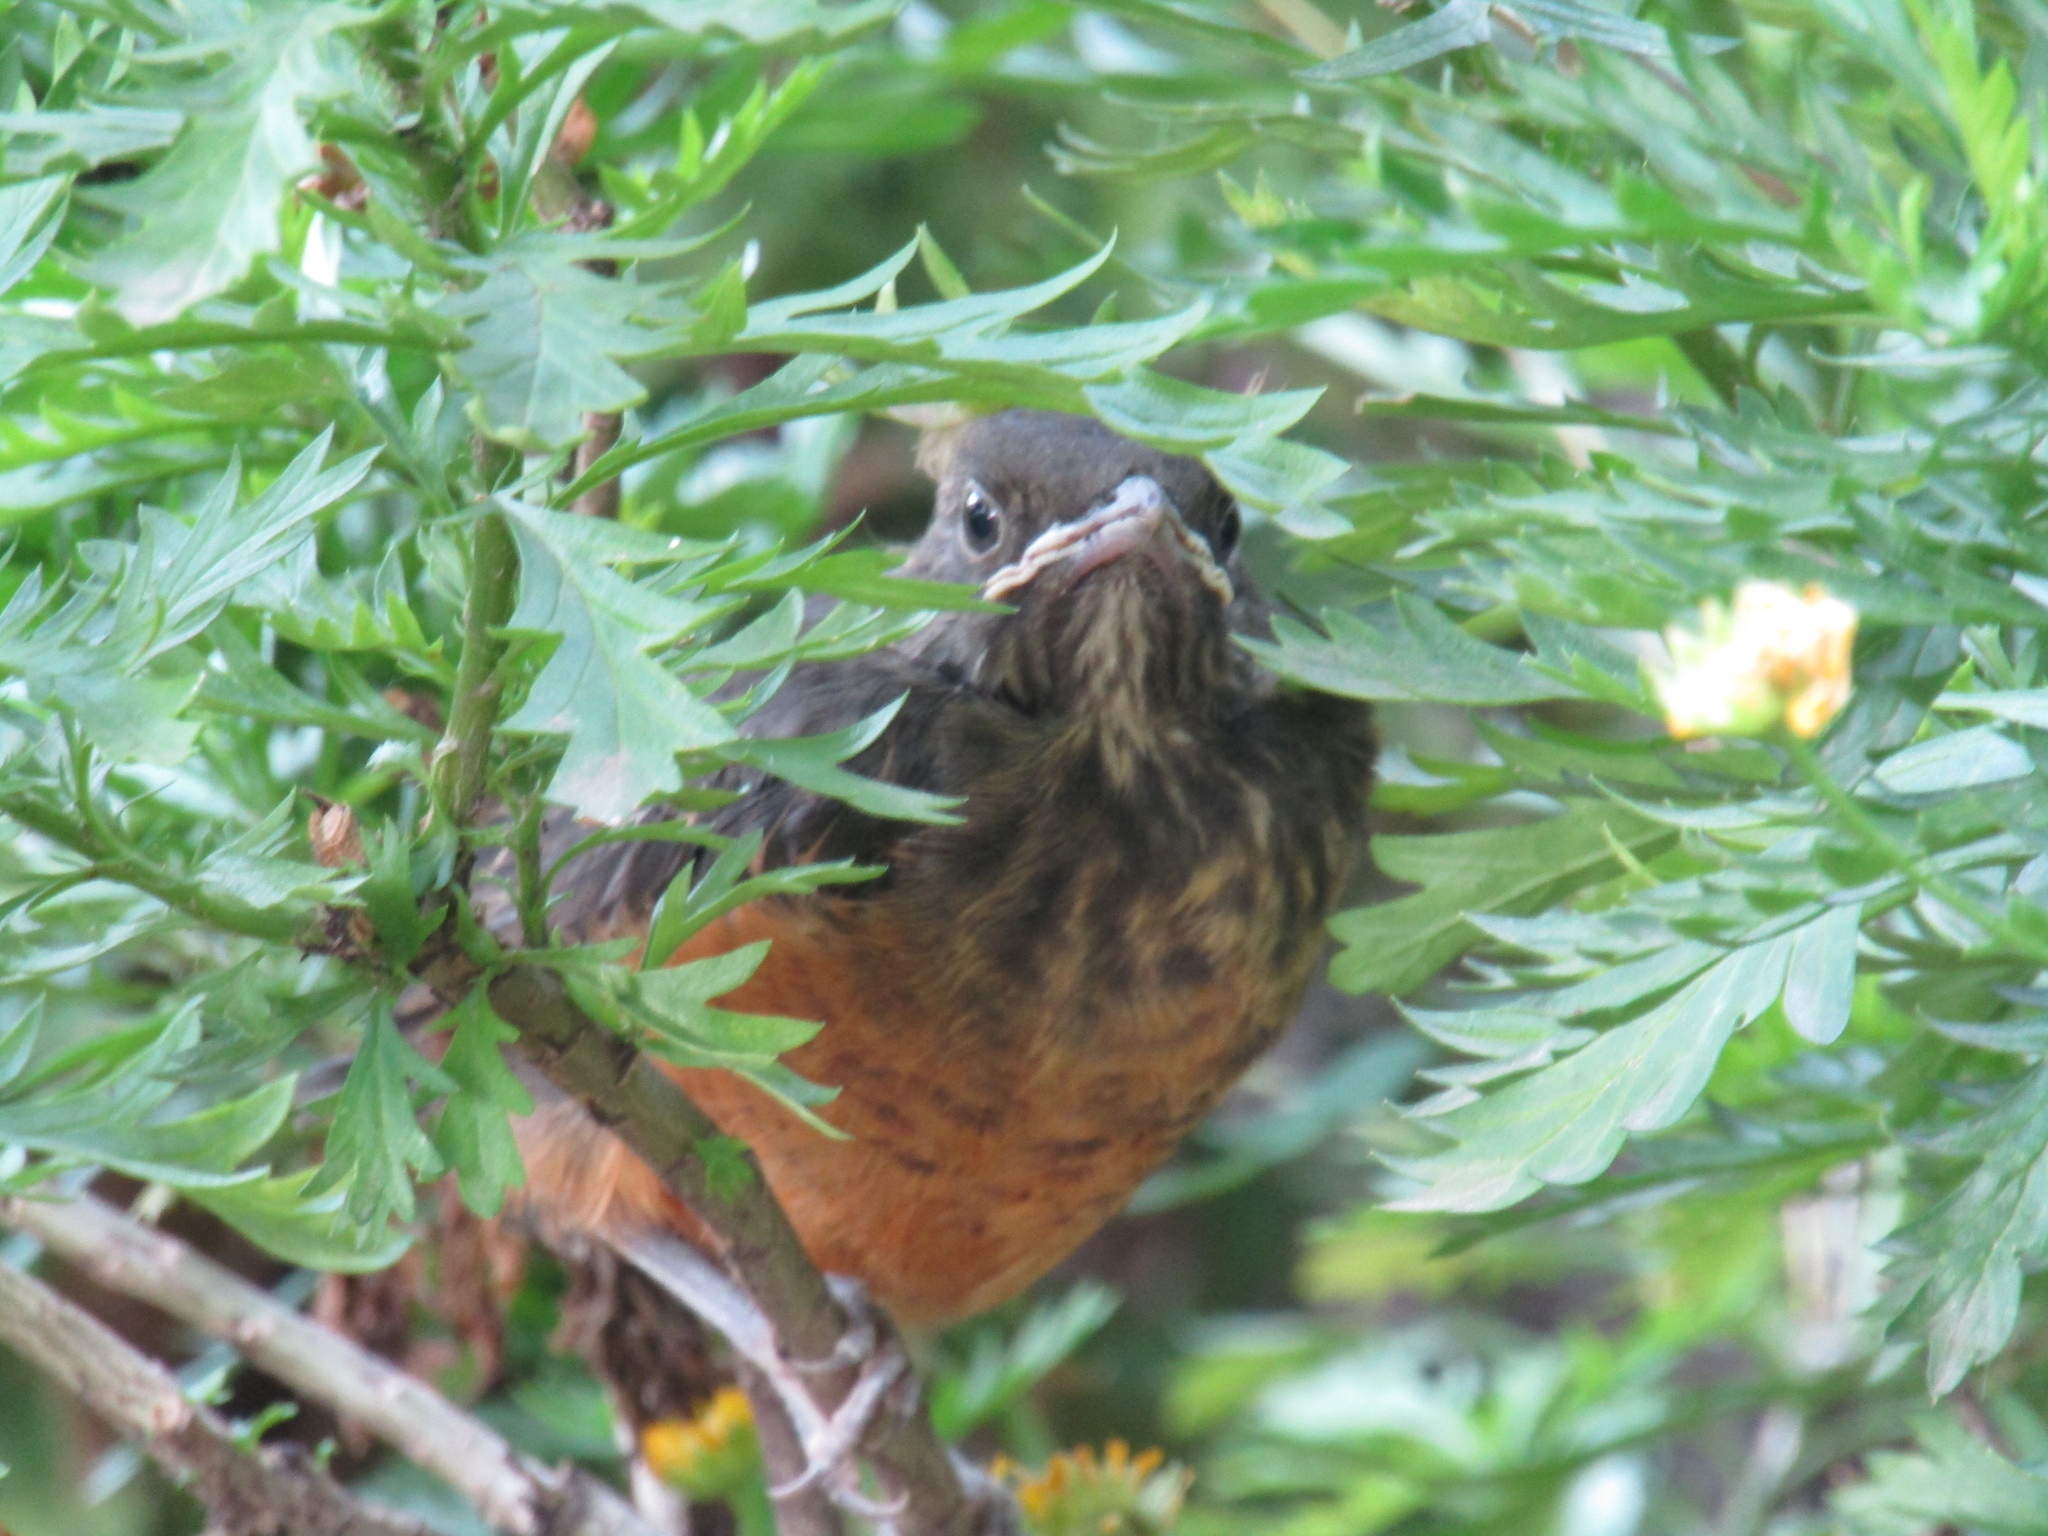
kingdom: Animalia
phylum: Chordata
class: Aves
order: Passeriformes
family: Turdidae
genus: Turdus
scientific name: Turdus rufiventris
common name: Rufous-bellied thrush
